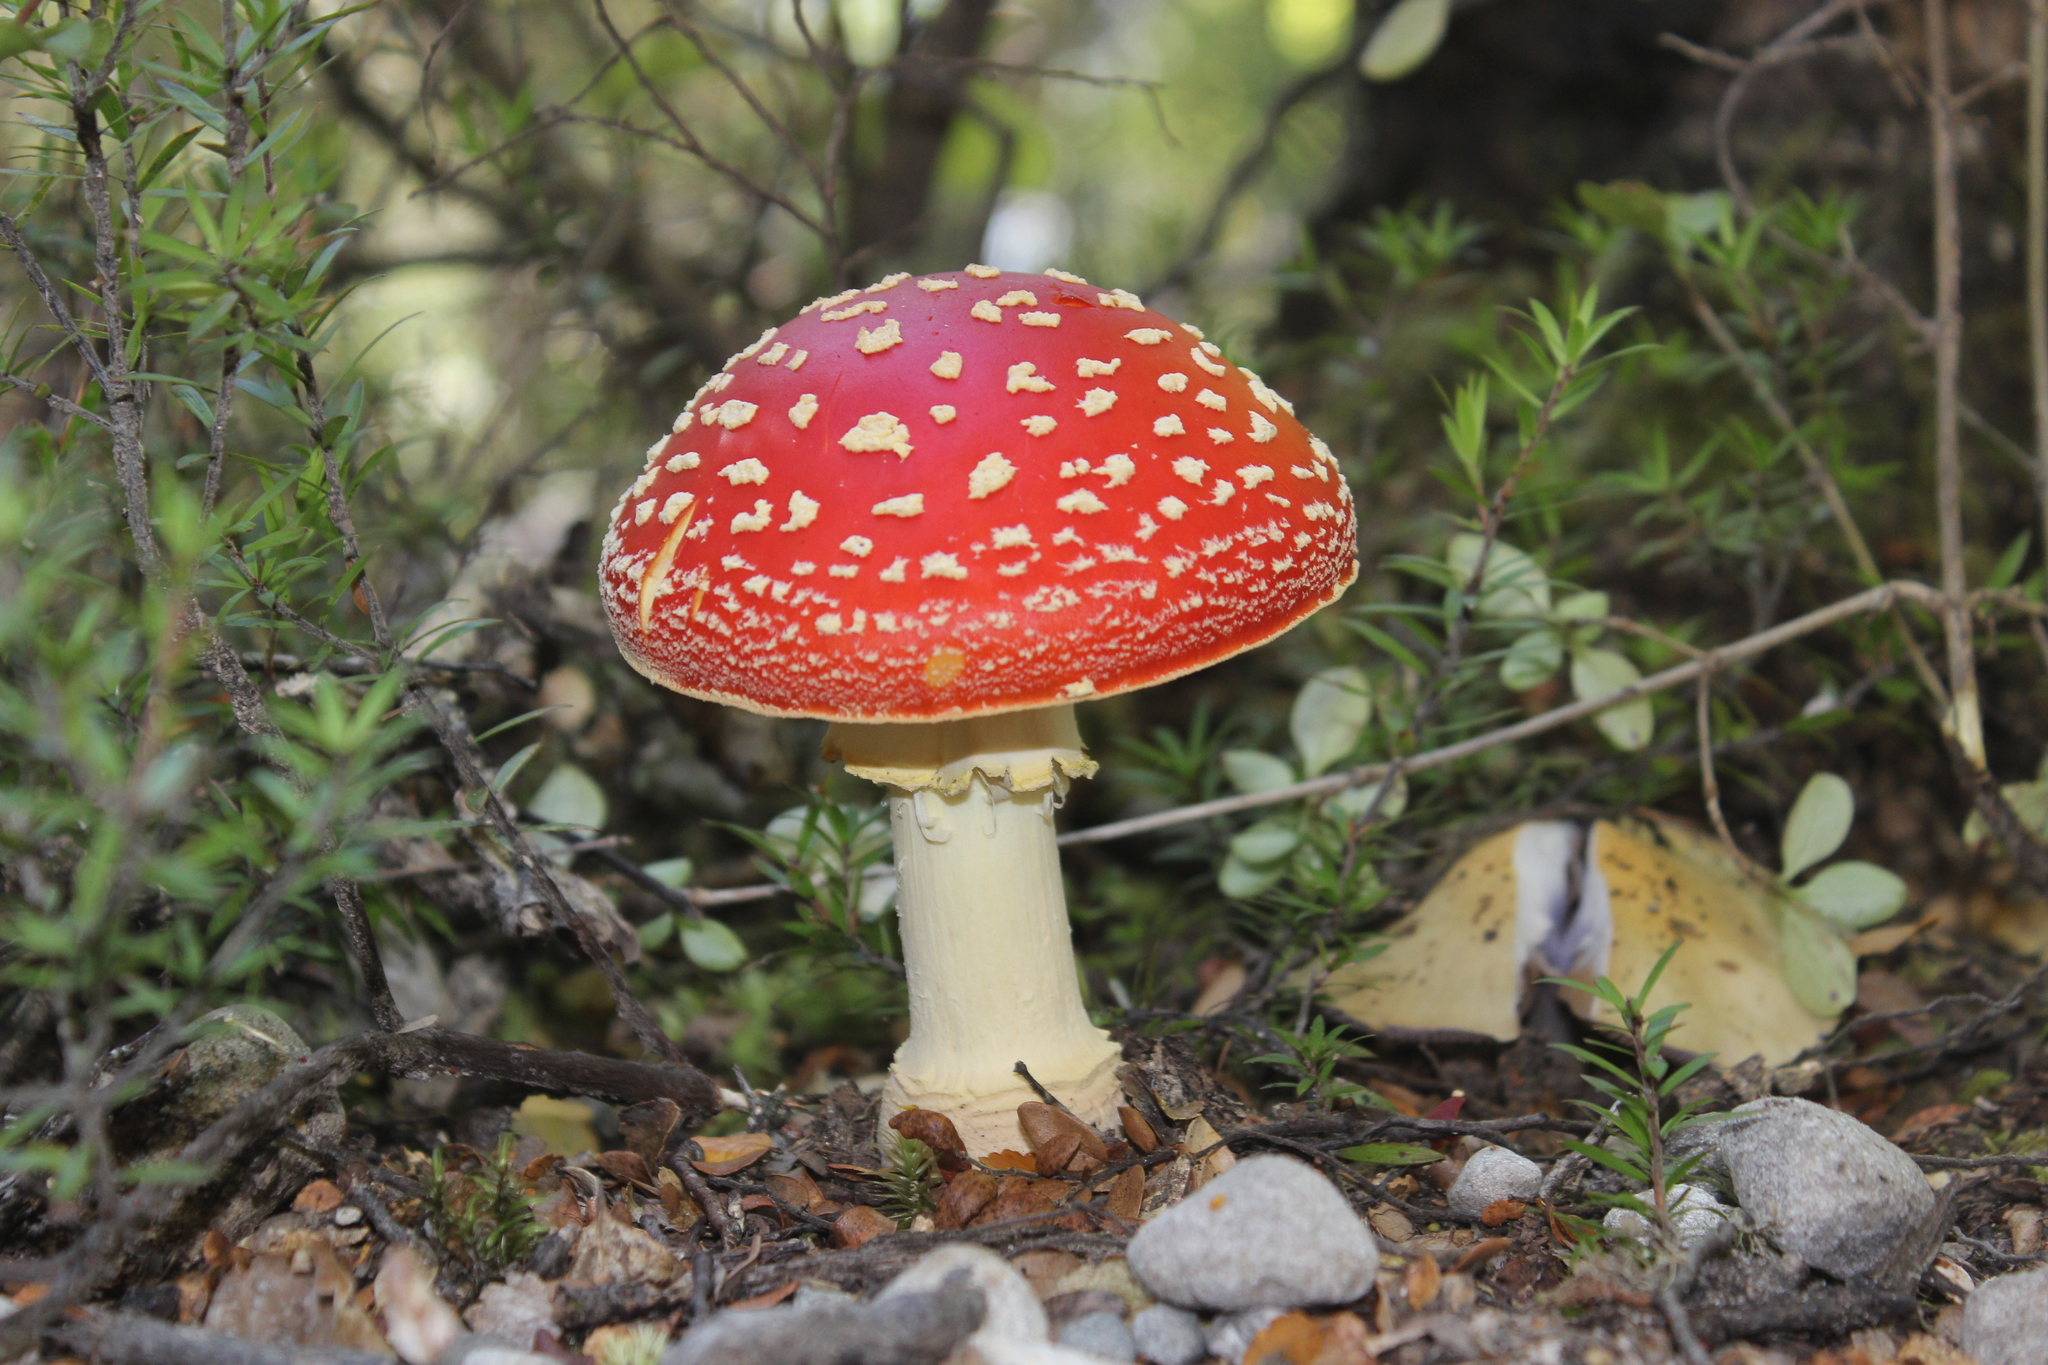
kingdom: Fungi
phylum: Basidiomycota
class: Agaricomycetes
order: Agaricales
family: Amanitaceae
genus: Amanita
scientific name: Amanita muscaria
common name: Fly agaric
